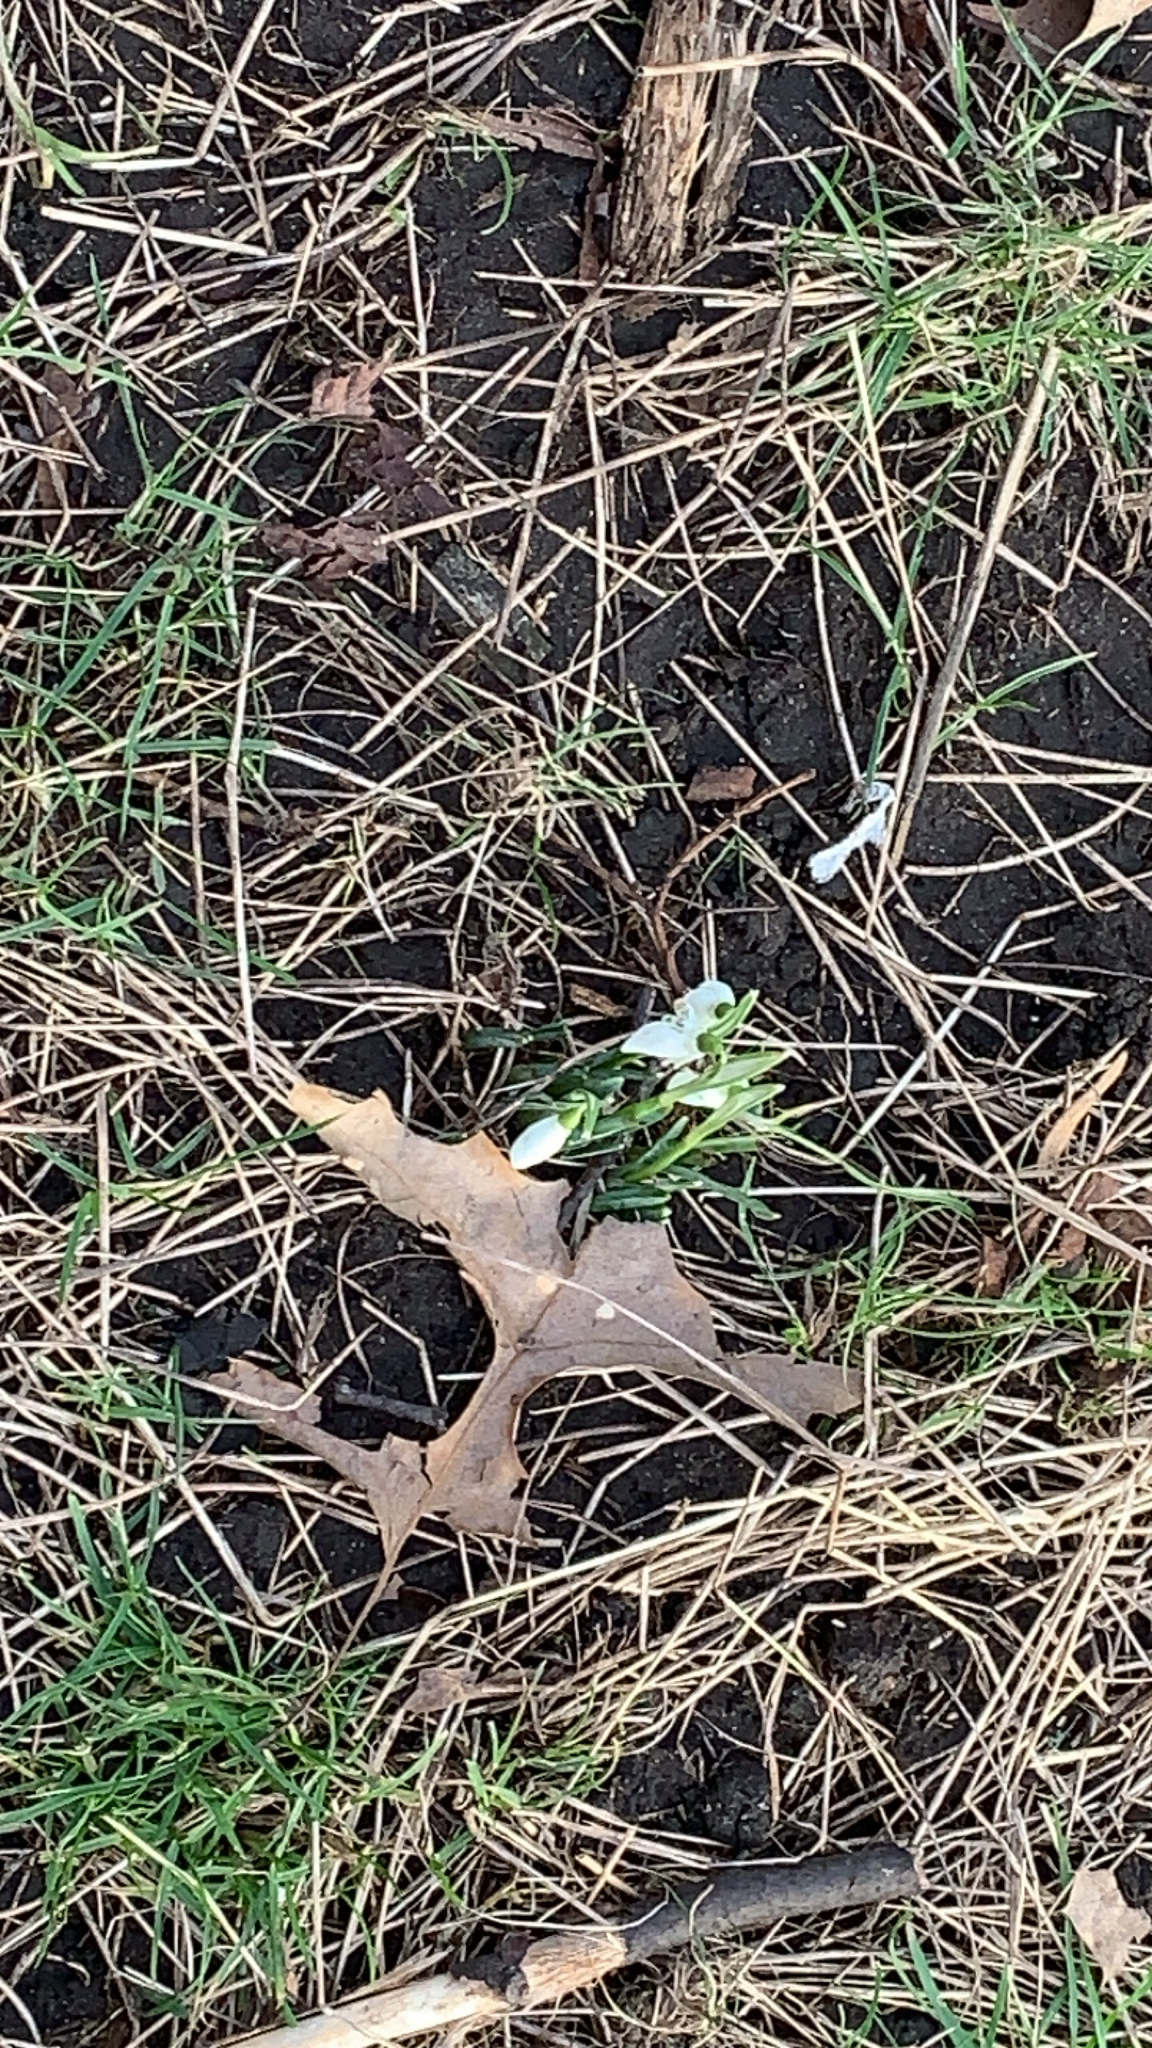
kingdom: Plantae
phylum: Tracheophyta
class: Liliopsida
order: Asparagales
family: Amaryllidaceae
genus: Galanthus
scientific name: Galanthus nivalis
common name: Snowdrop
